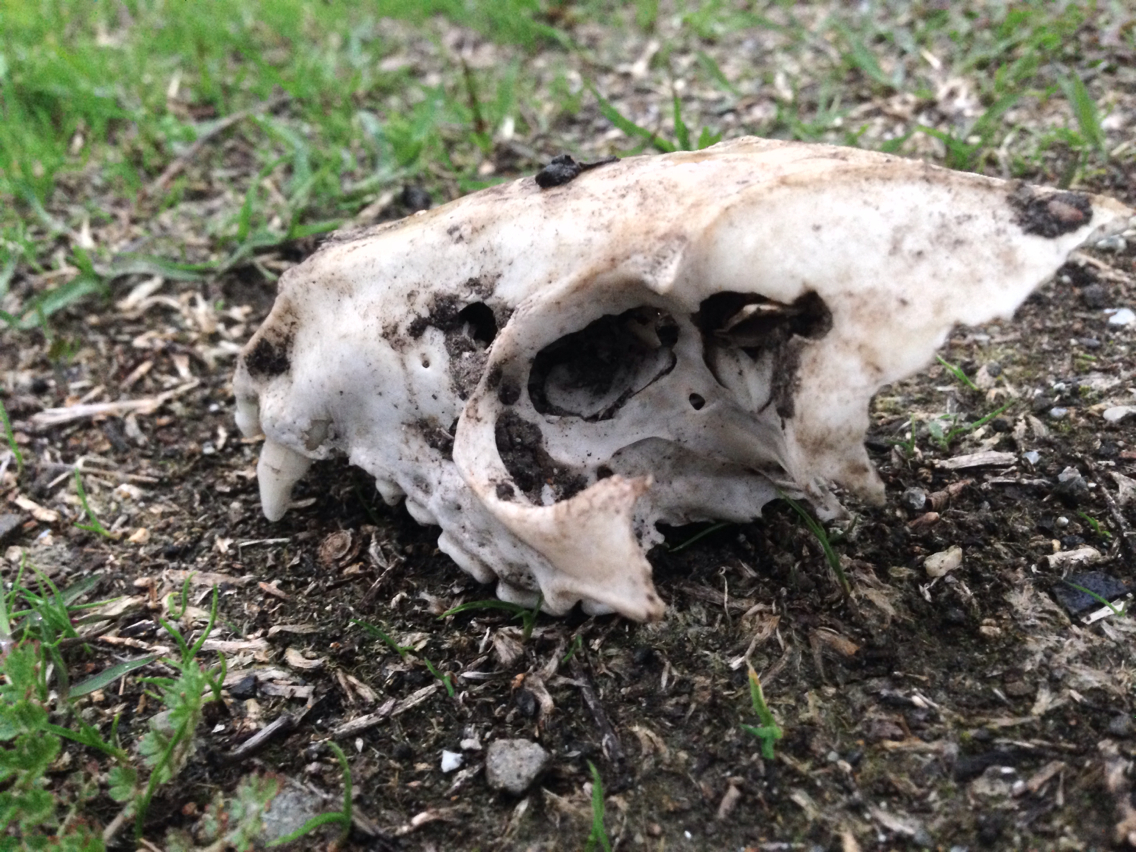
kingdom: Animalia
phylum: Chordata
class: Mammalia
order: Carnivora
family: Procyonidae
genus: Procyon
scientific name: Procyon lotor
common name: Raccoon
